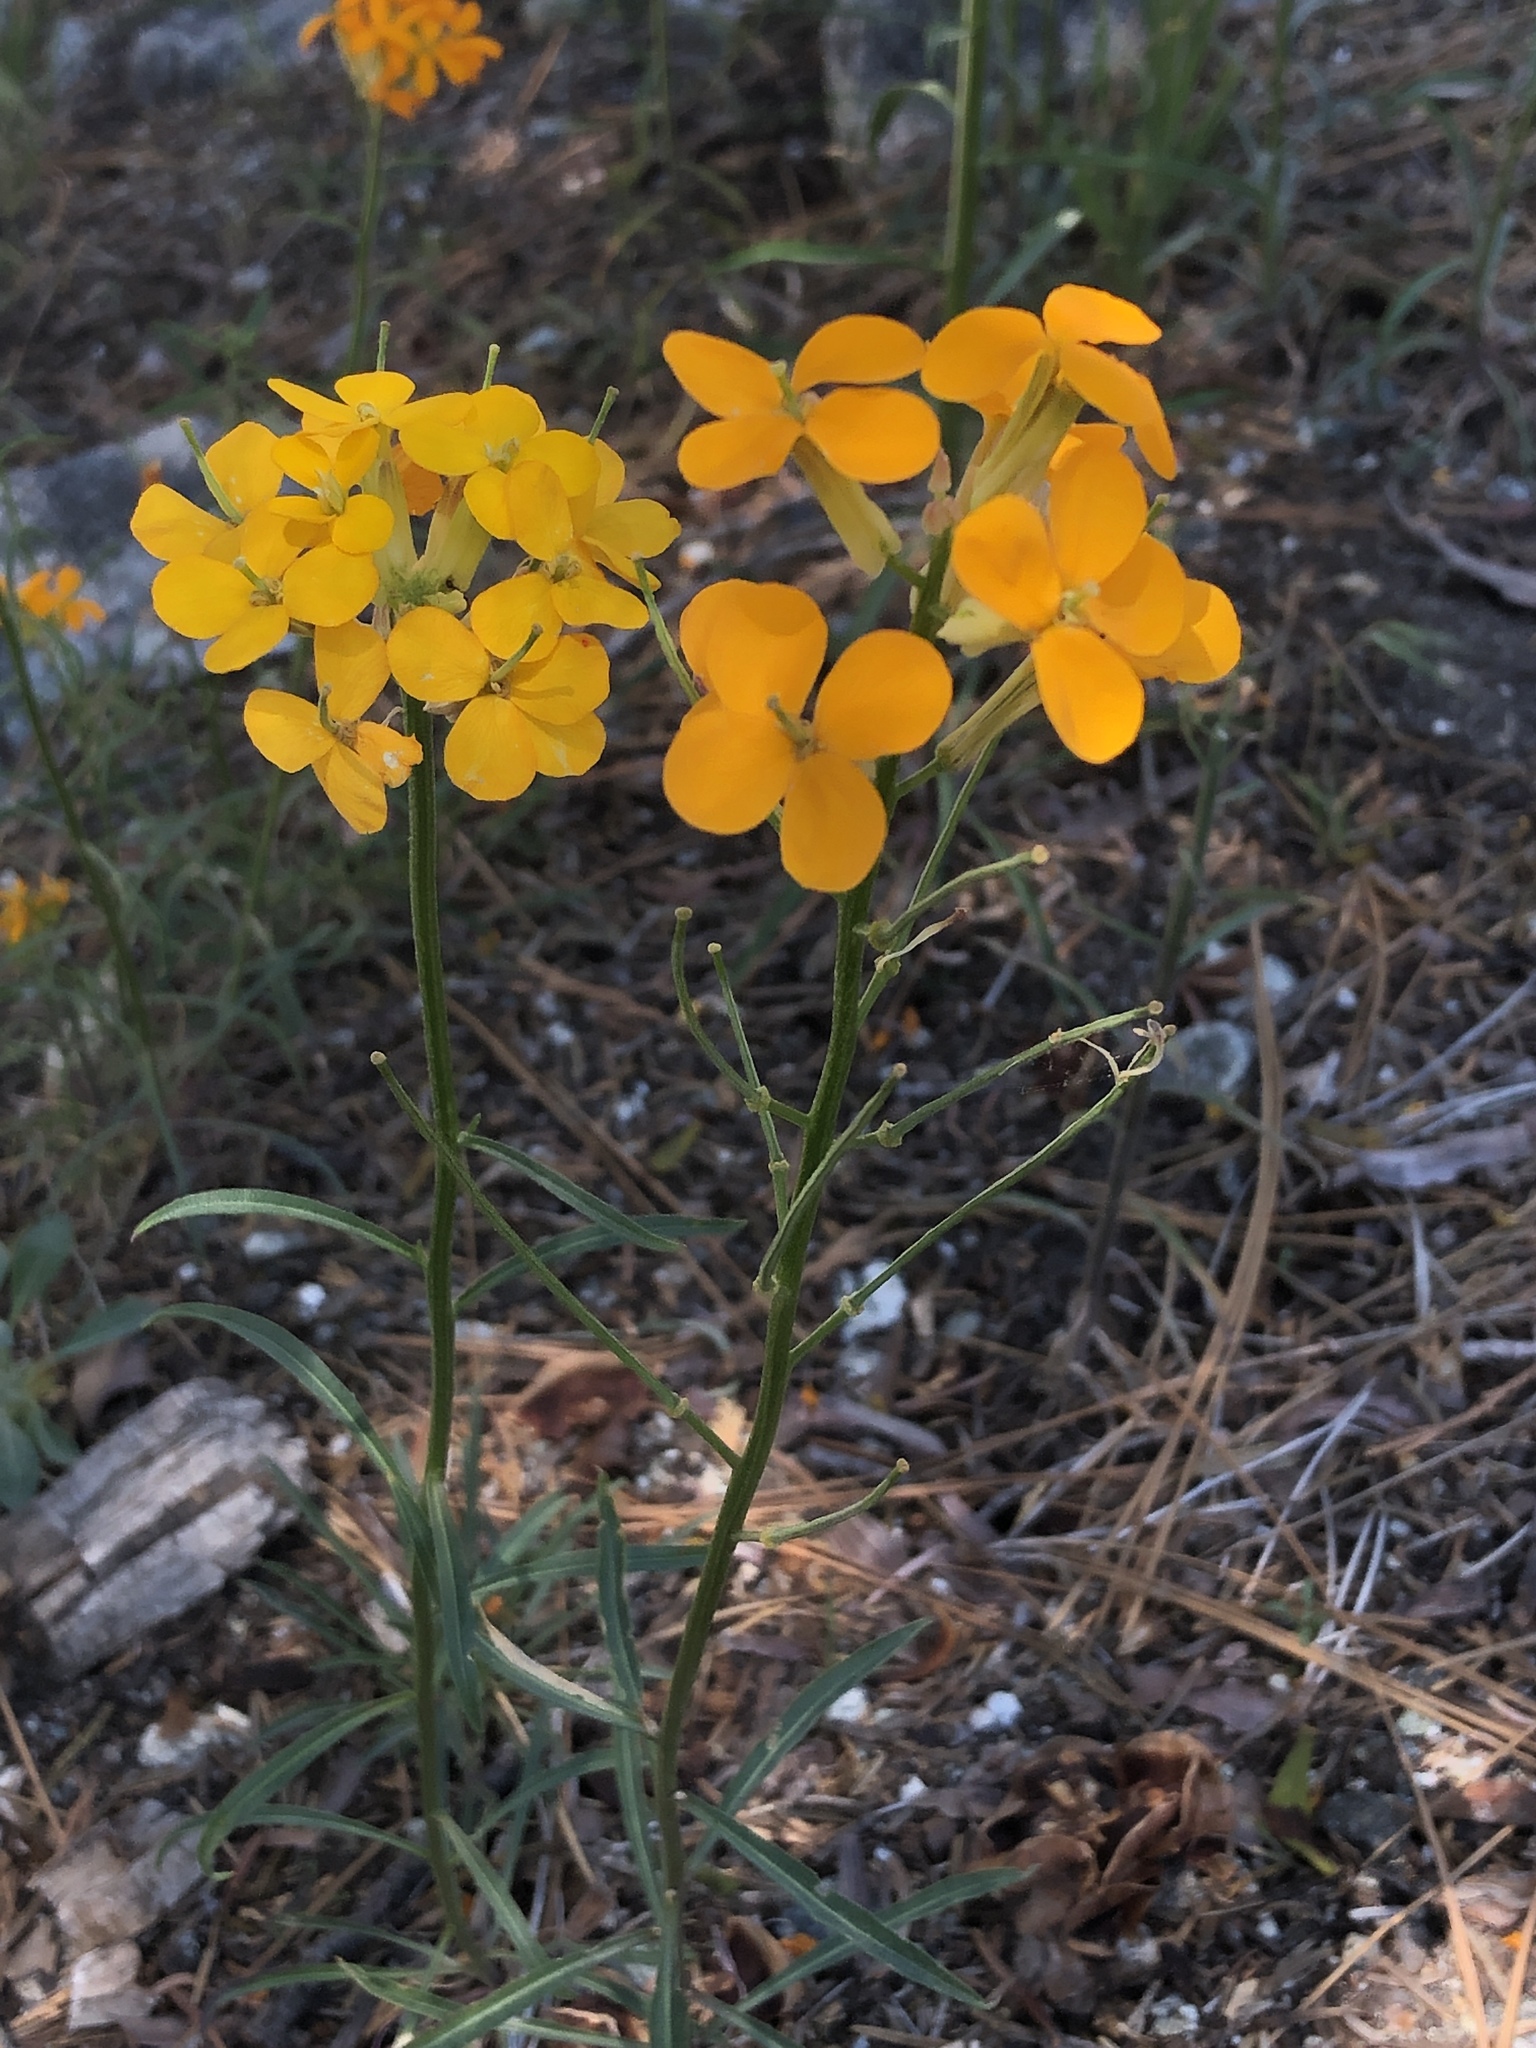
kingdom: Plantae
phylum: Tracheophyta
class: Magnoliopsida
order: Brassicales
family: Brassicaceae
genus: Erysimum
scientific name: Erysimum capitatum
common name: Western wallflower
